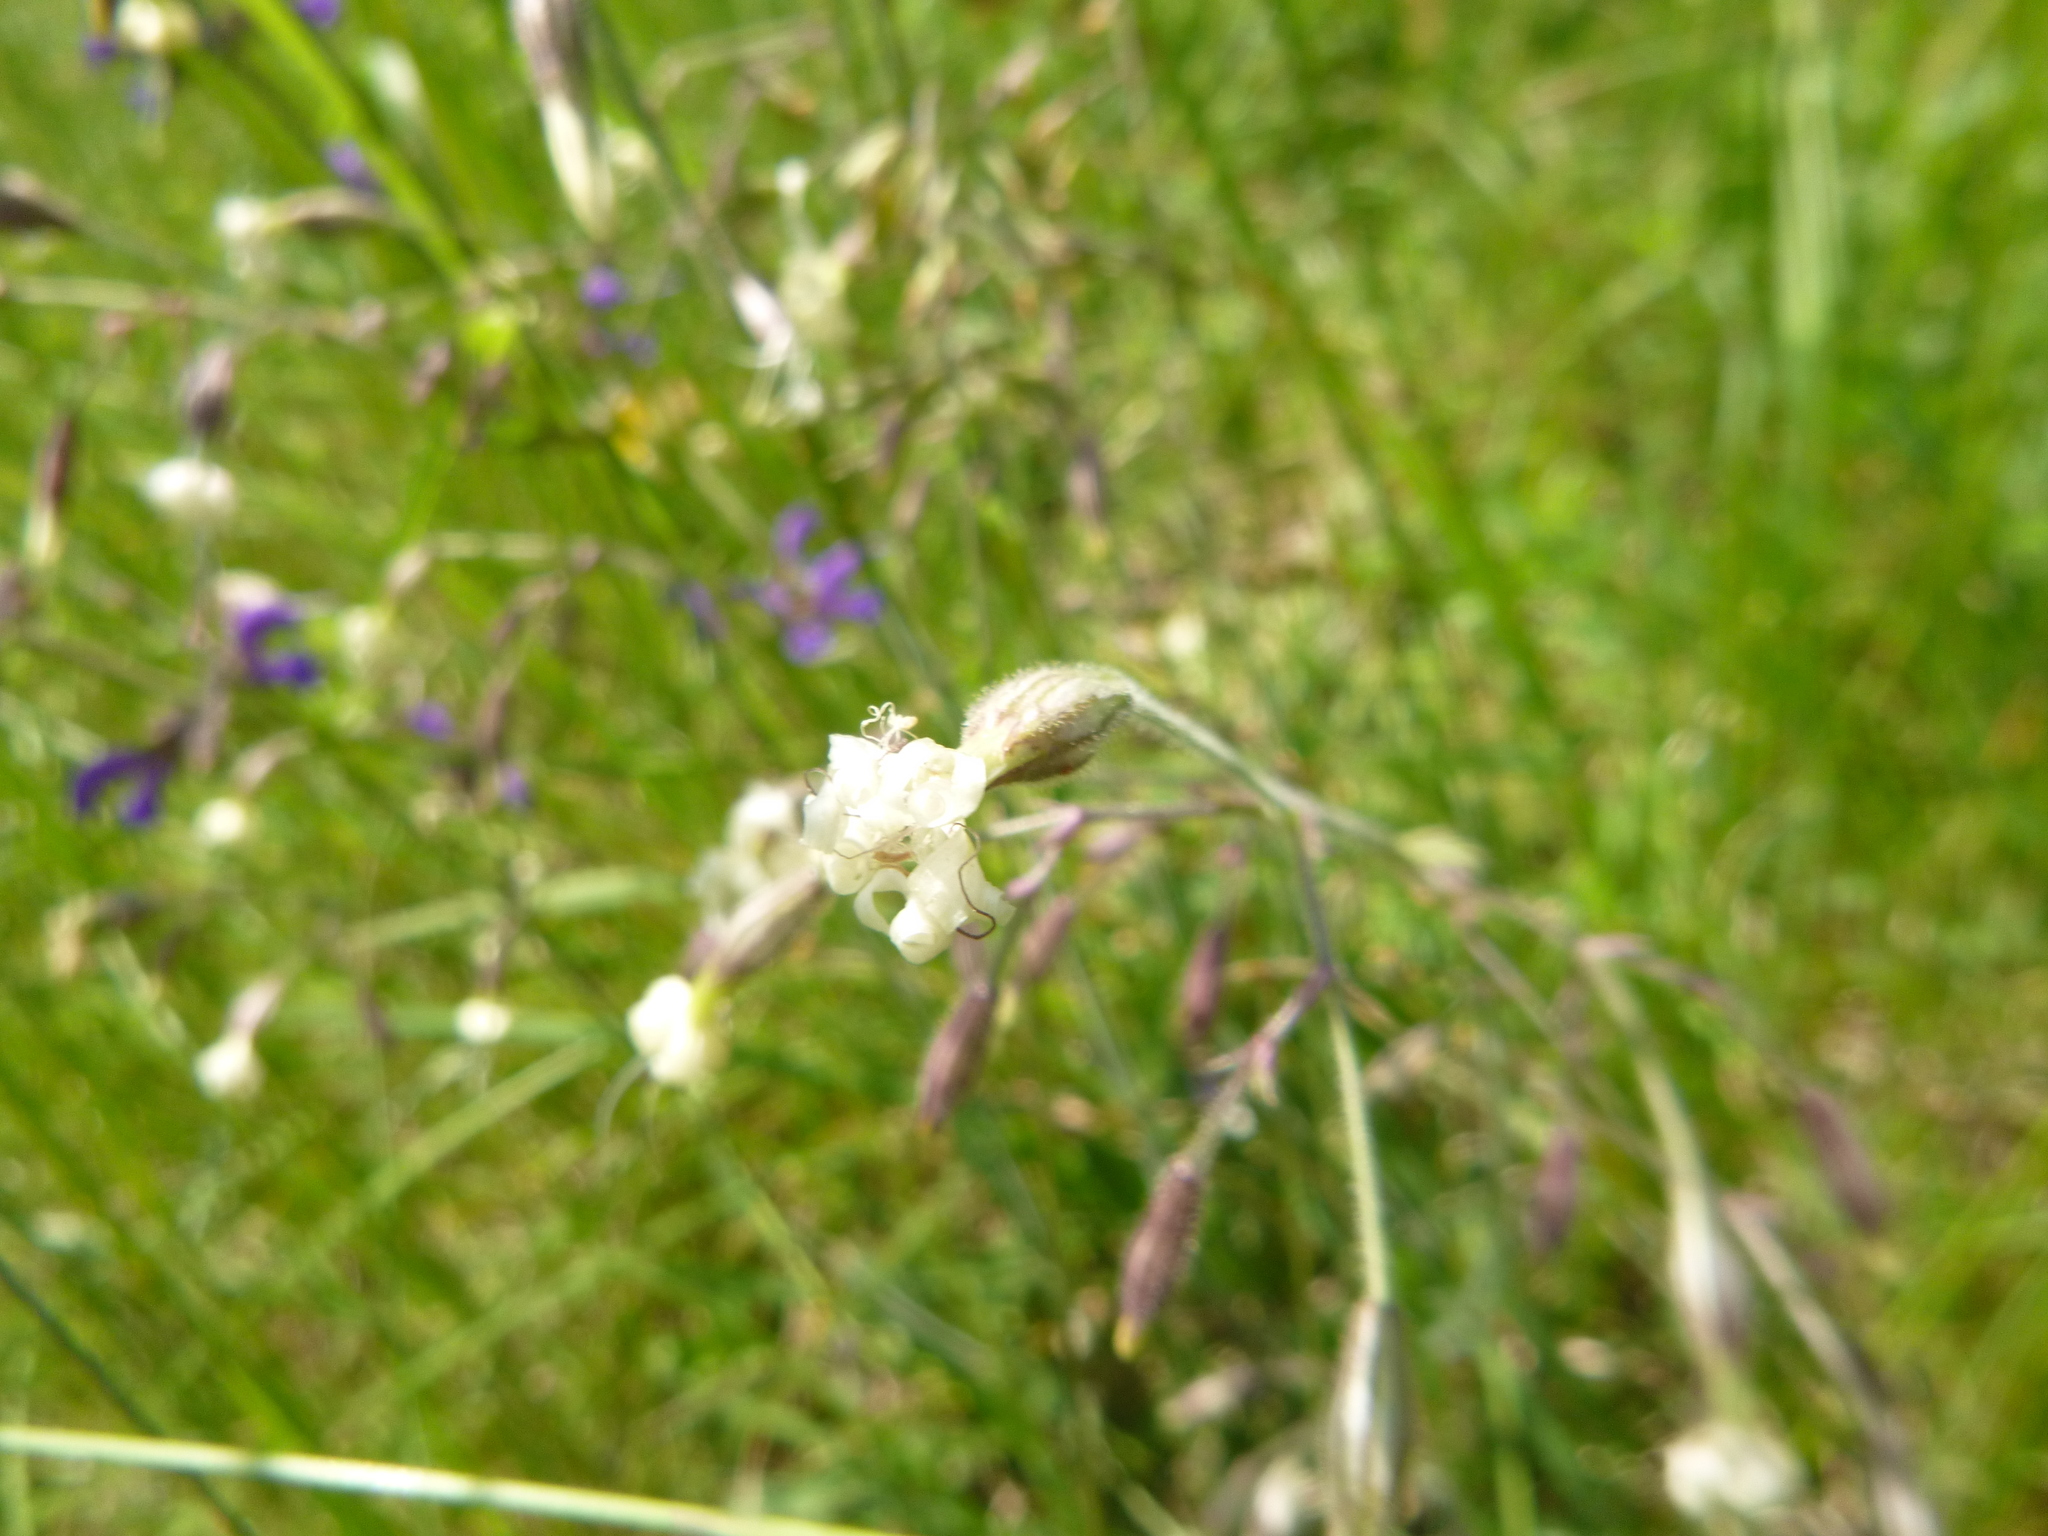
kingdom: Plantae
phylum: Tracheophyta
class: Magnoliopsida
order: Caryophyllales
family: Caryophyllaceae
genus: Silene
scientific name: Silene nutans
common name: Nottingham catchfly
